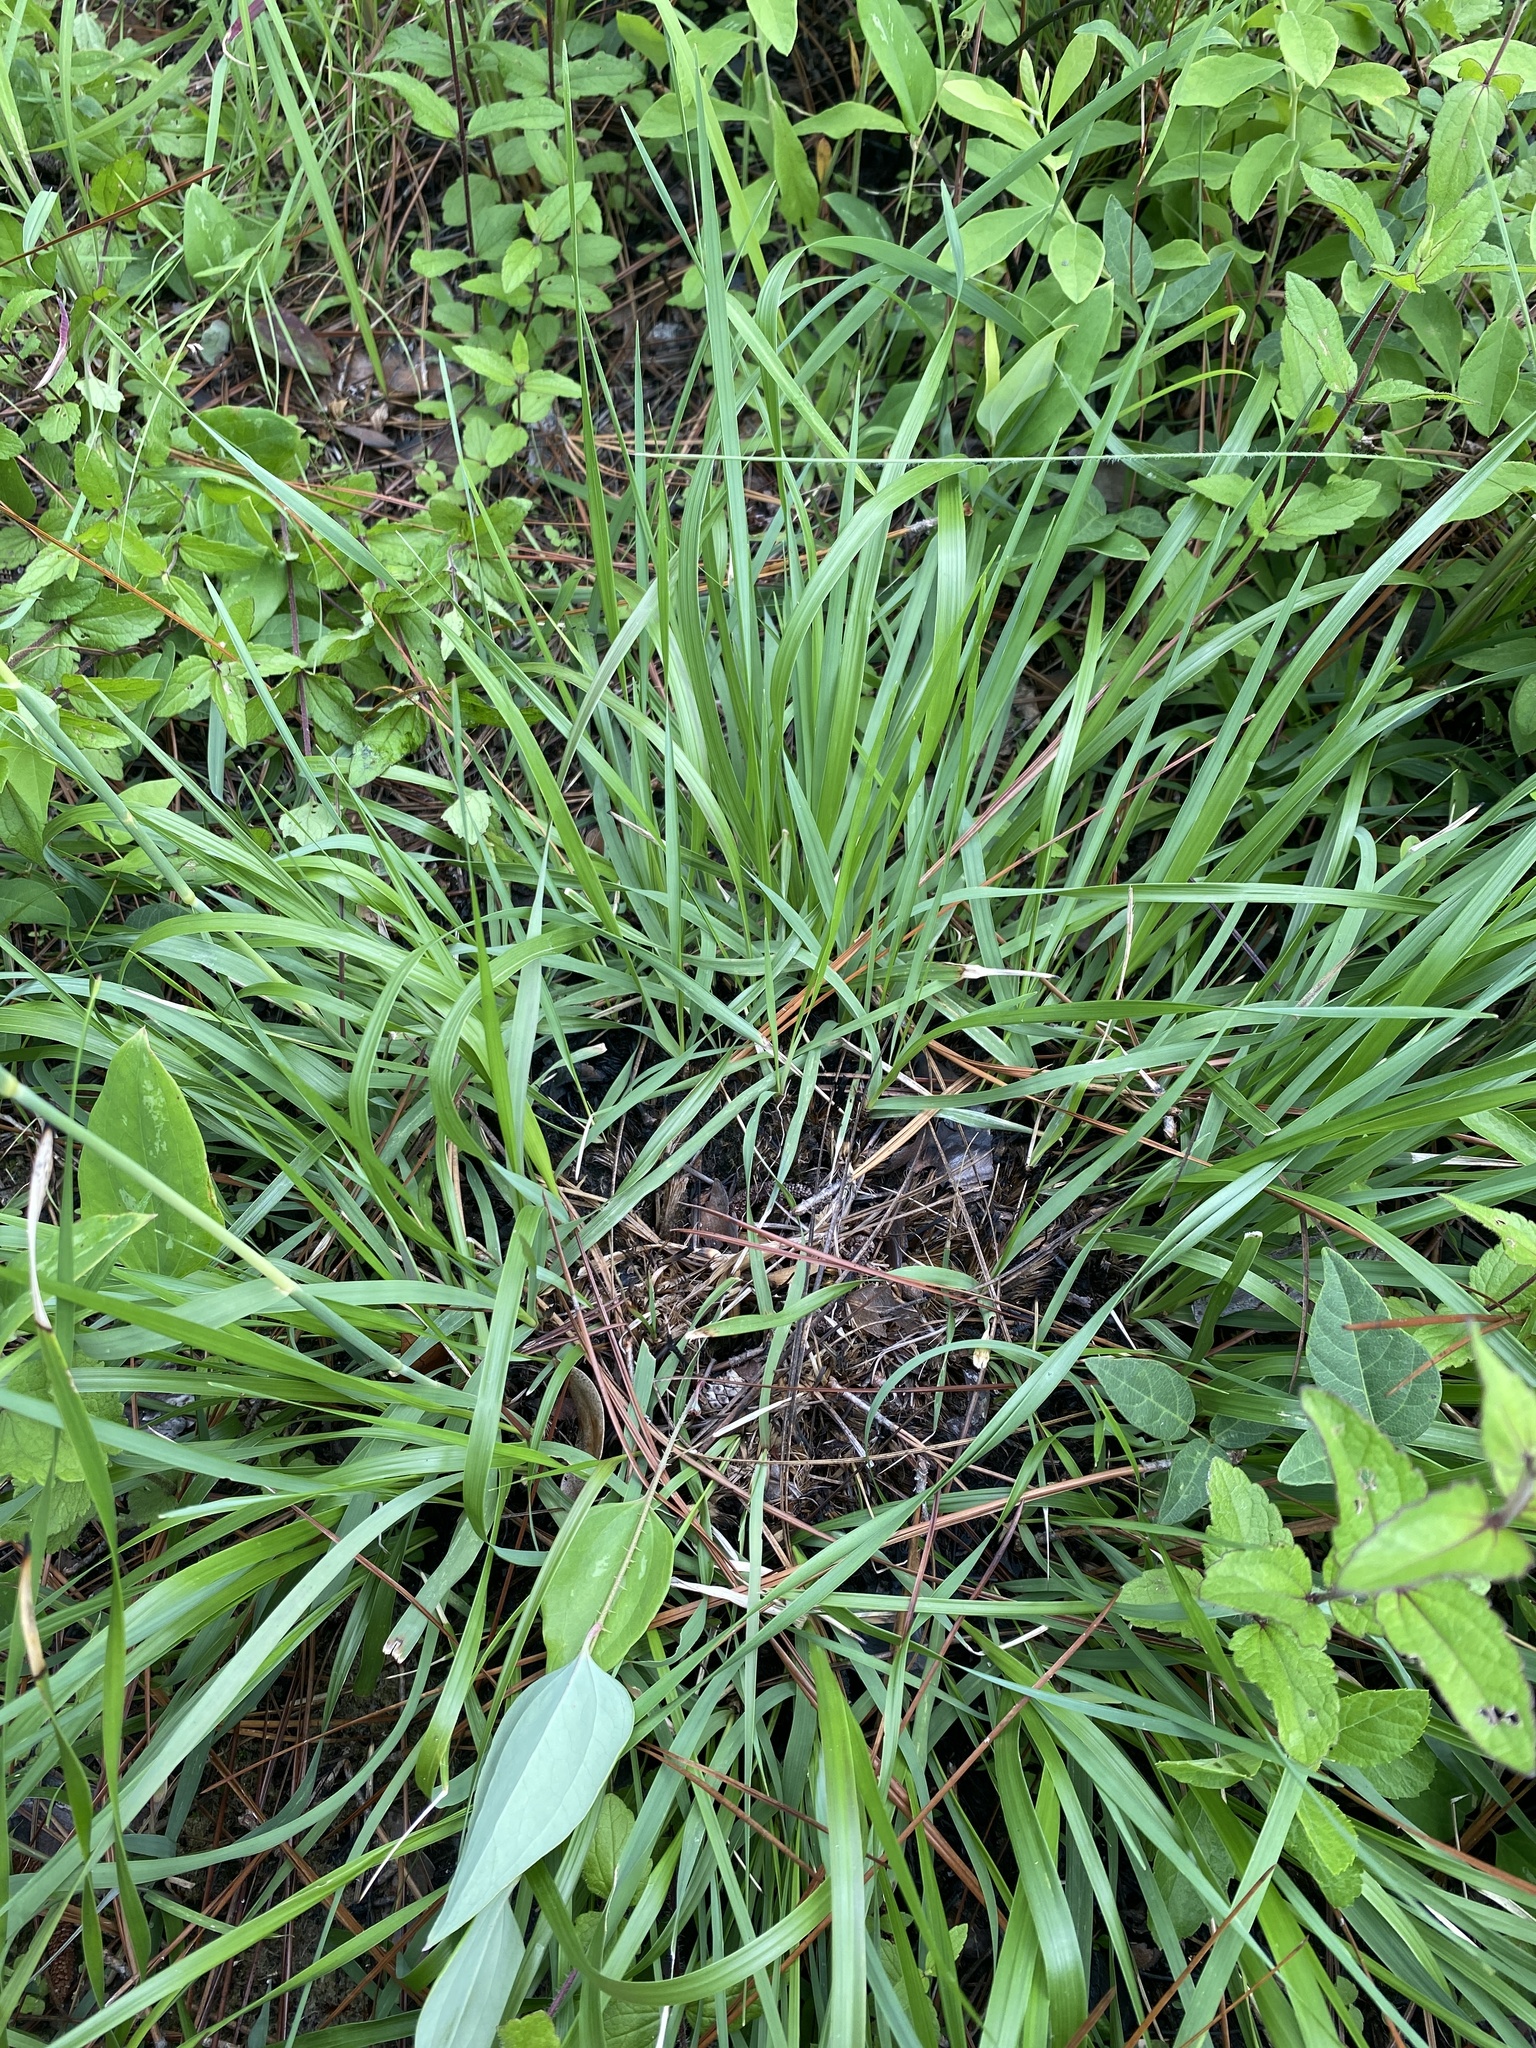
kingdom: Plantae
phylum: Tracheophyta
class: Liliopsida
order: Poales
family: Poaceae
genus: Ctenium
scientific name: Ctenium aromaticum
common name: Toothache grass
